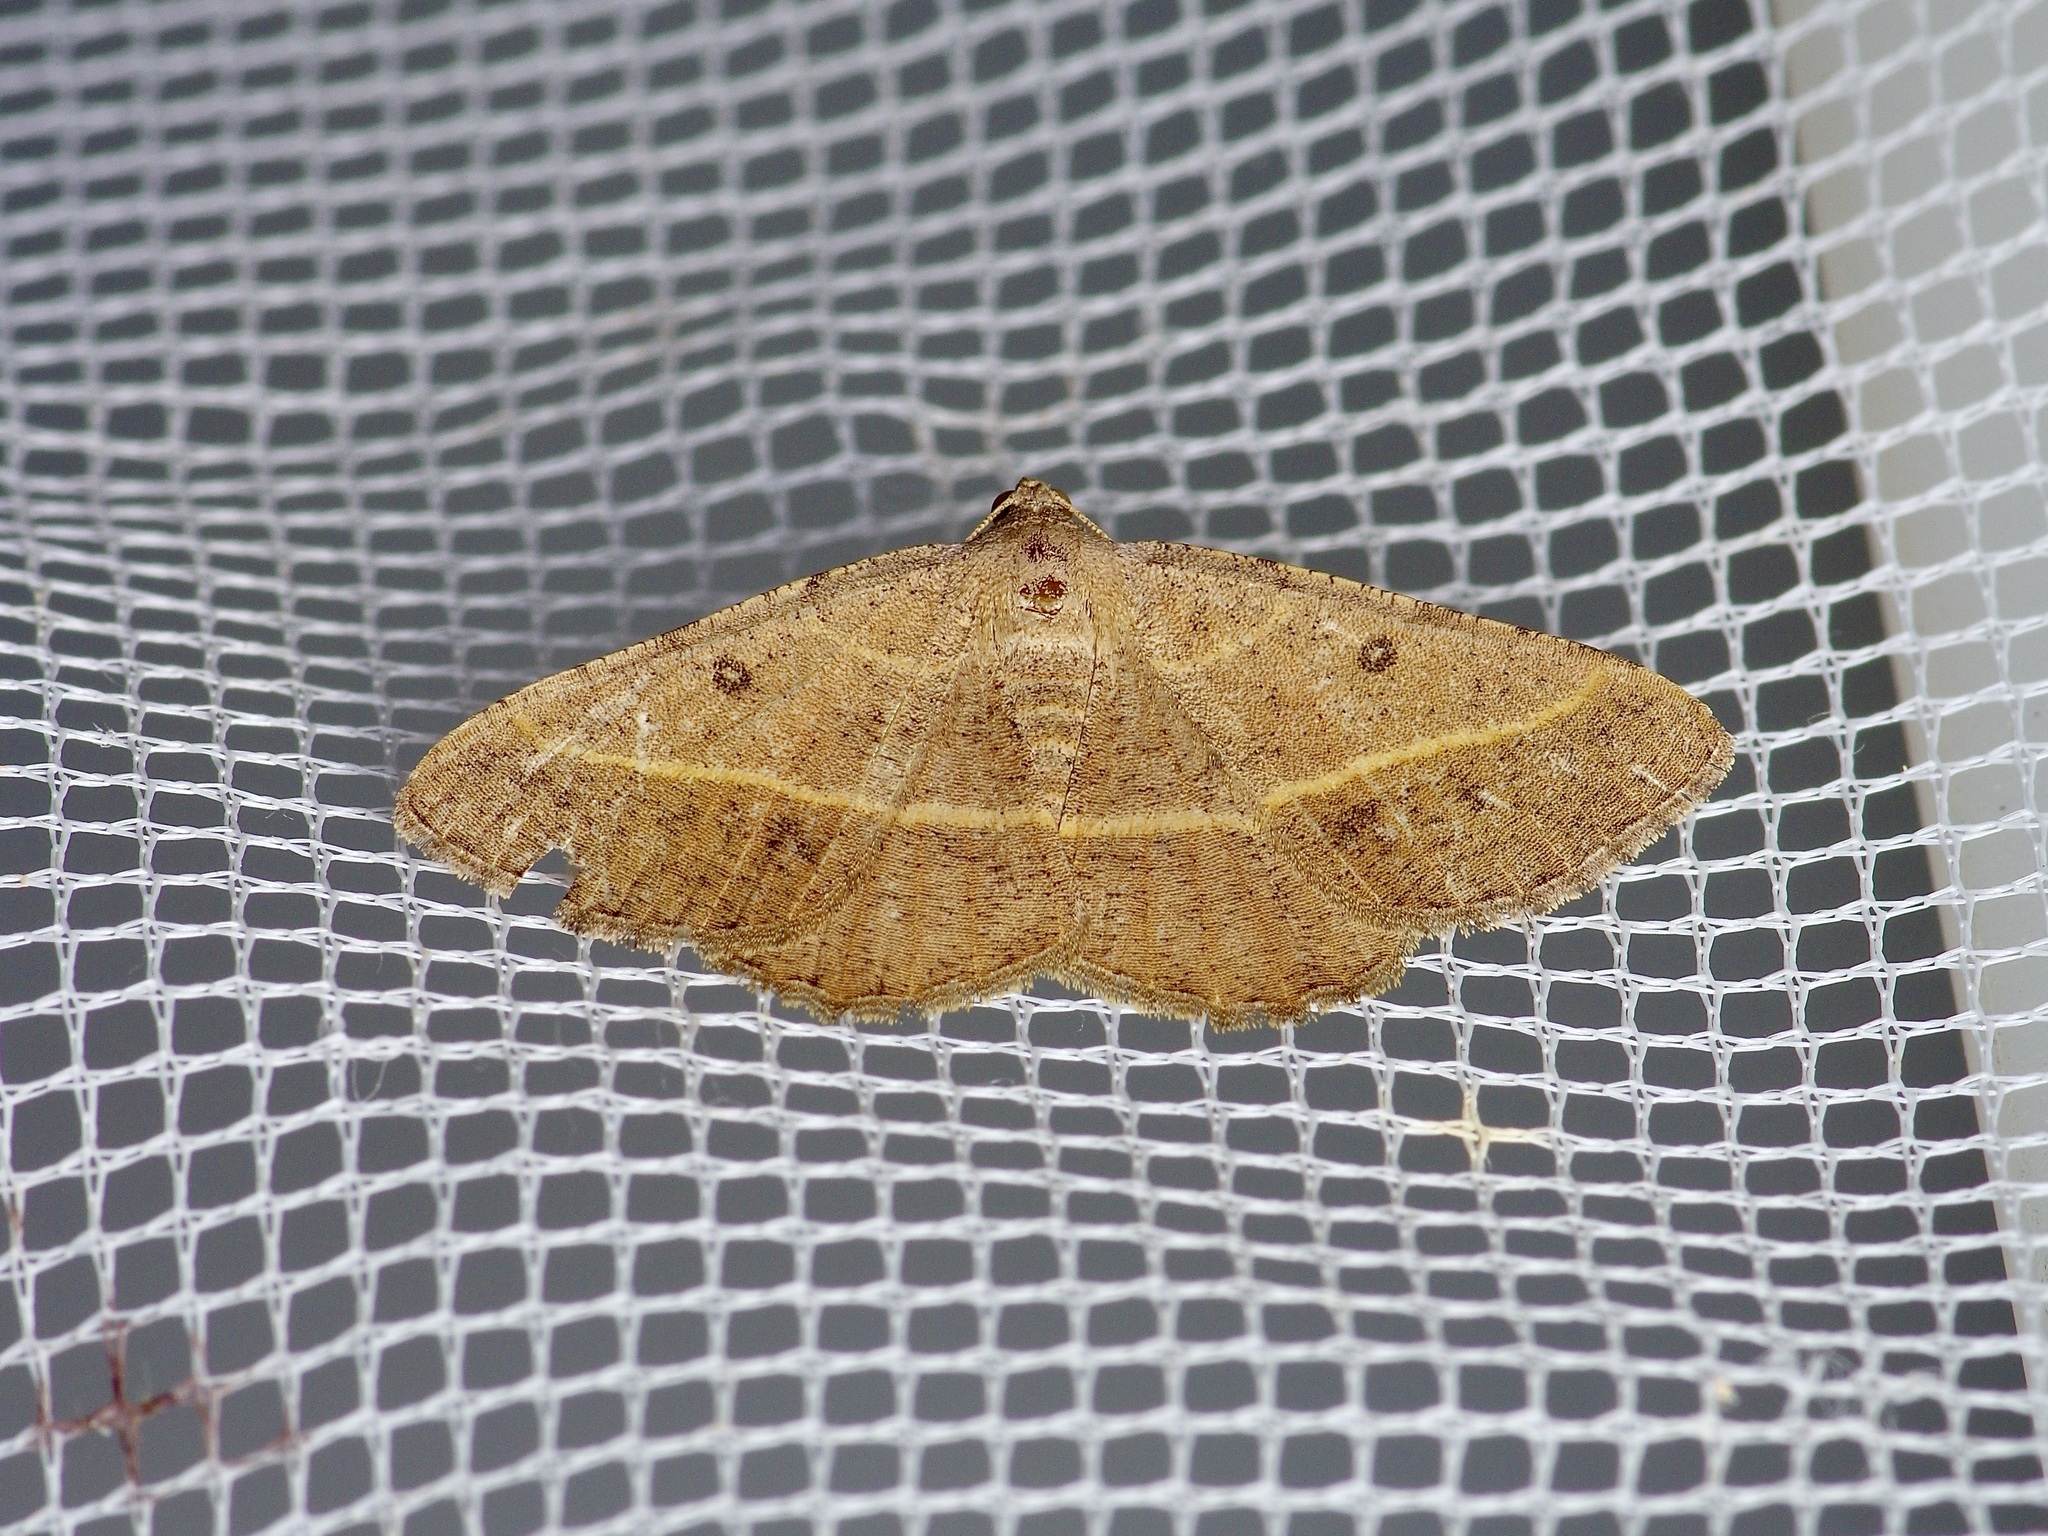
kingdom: Animalia
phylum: Arthropoda
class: Insecta
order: Lepidoptera
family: Geometridae
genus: Digrammia
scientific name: Digrammia irrorata
